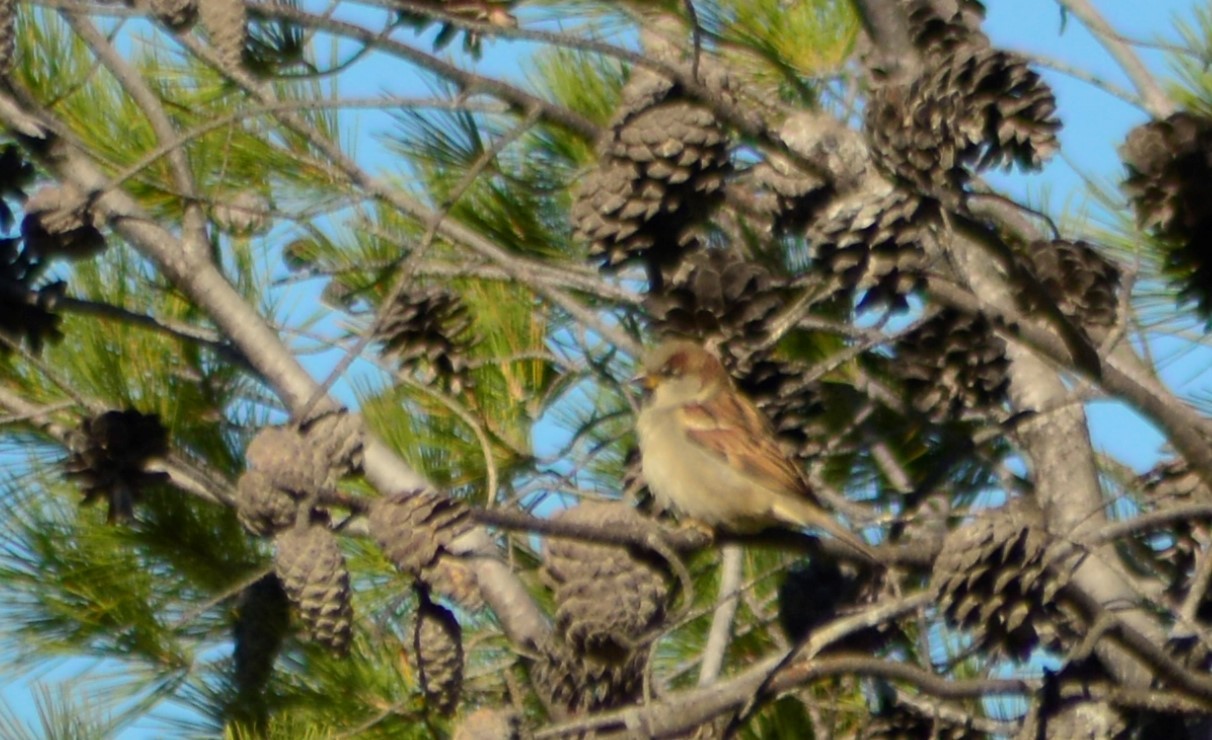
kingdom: Animalia
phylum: Chordata
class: Aves
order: Passeriformes
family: Passeridae
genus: Passer
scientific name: Passer domesticus
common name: House sparrow
